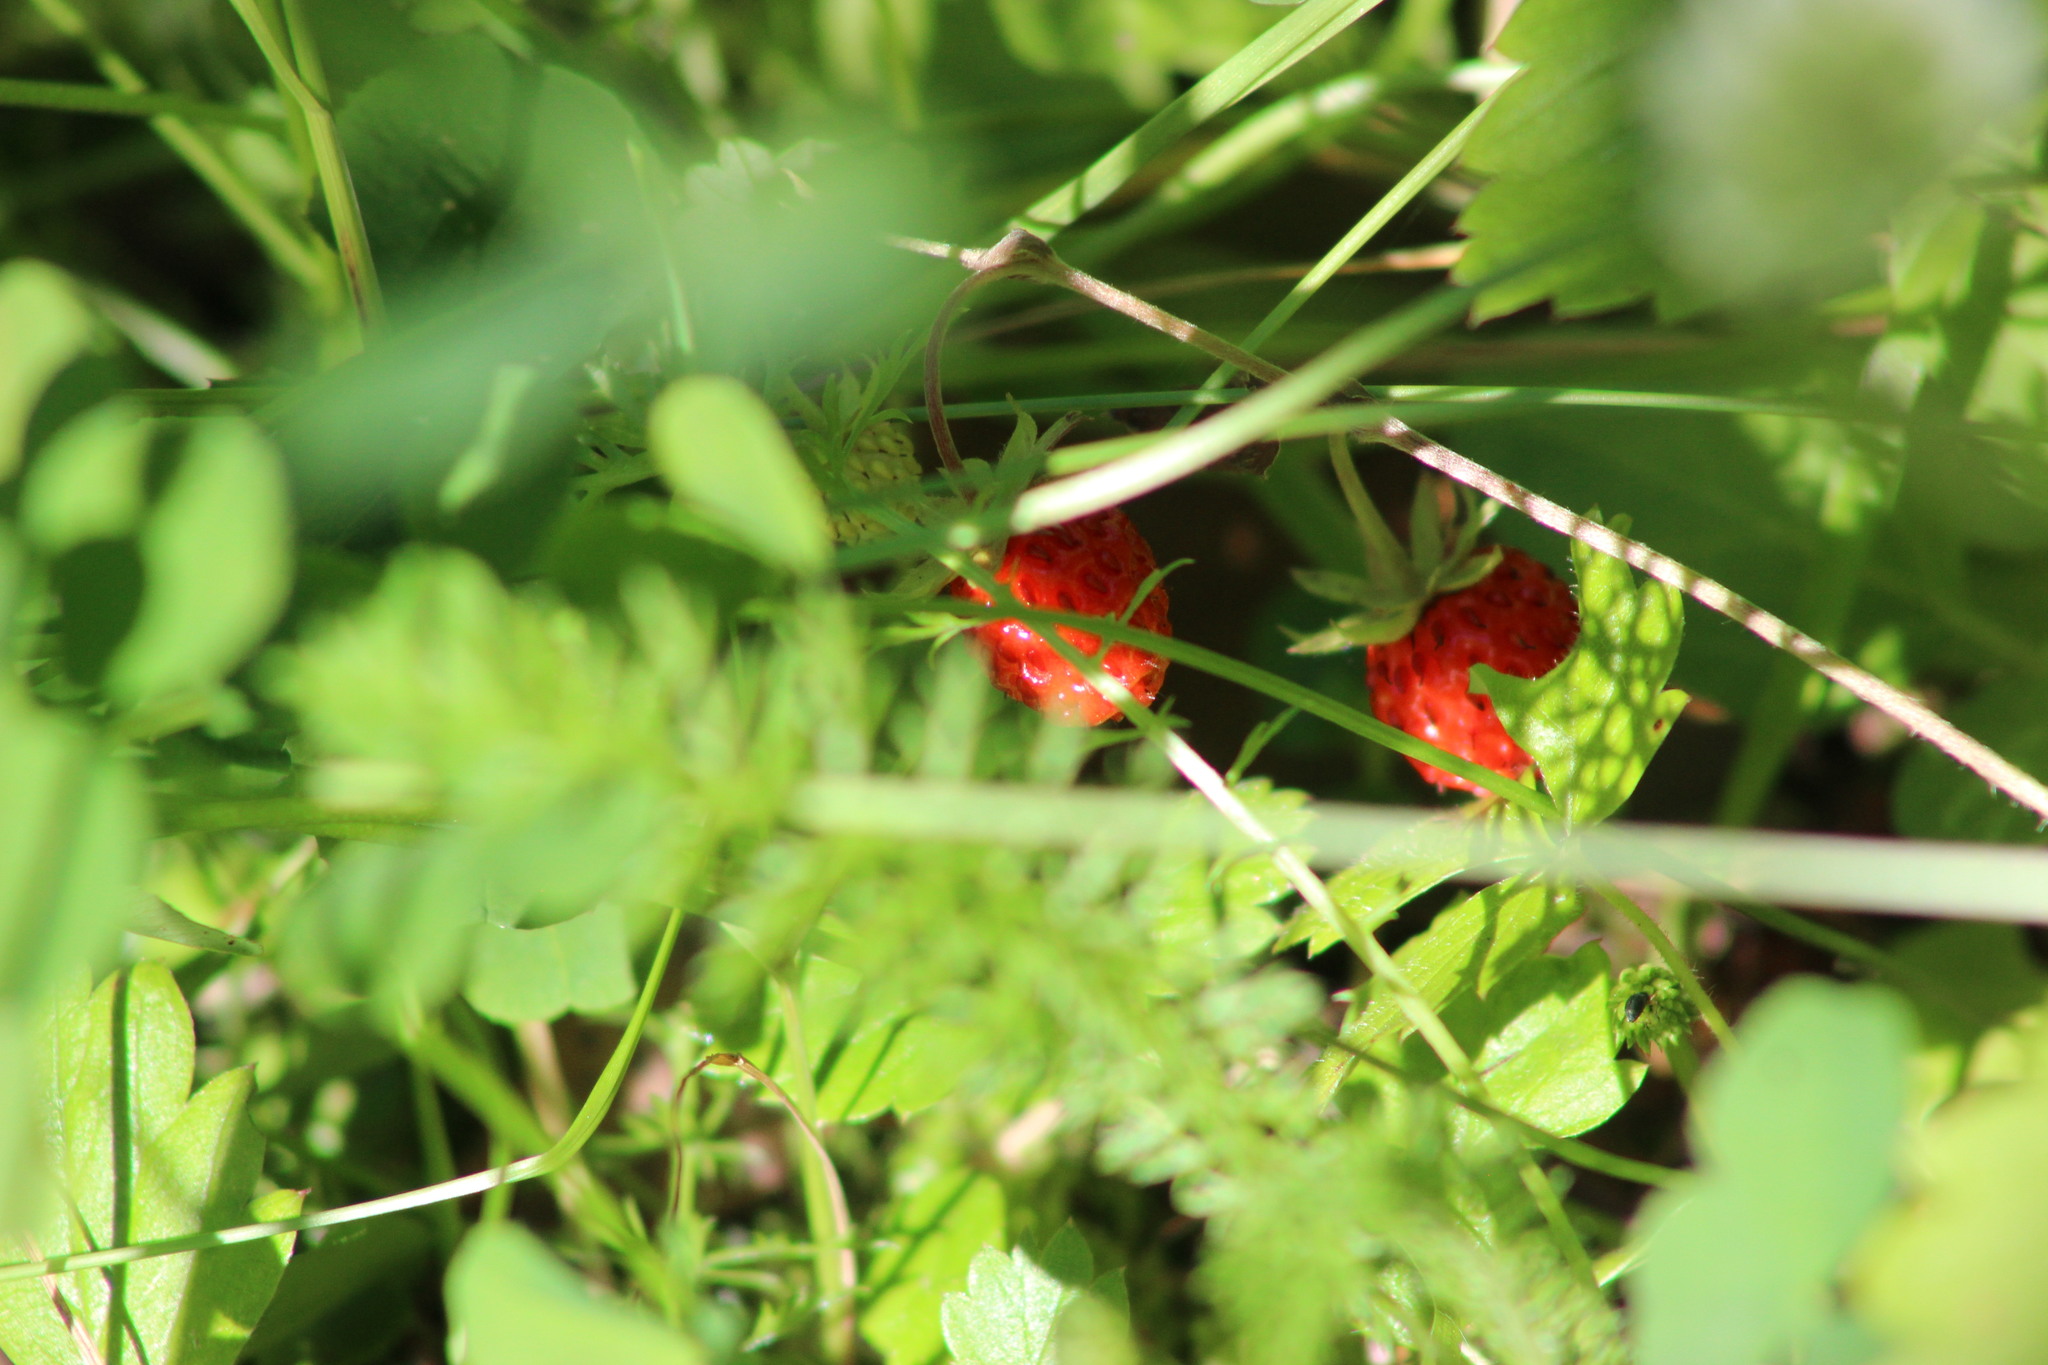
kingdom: Plantae
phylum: Tracheophyta
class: Magnoliopsida
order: Rosales
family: Rosaceae
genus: Fragaria
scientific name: Fragaria vesca
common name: Wild strawberry
